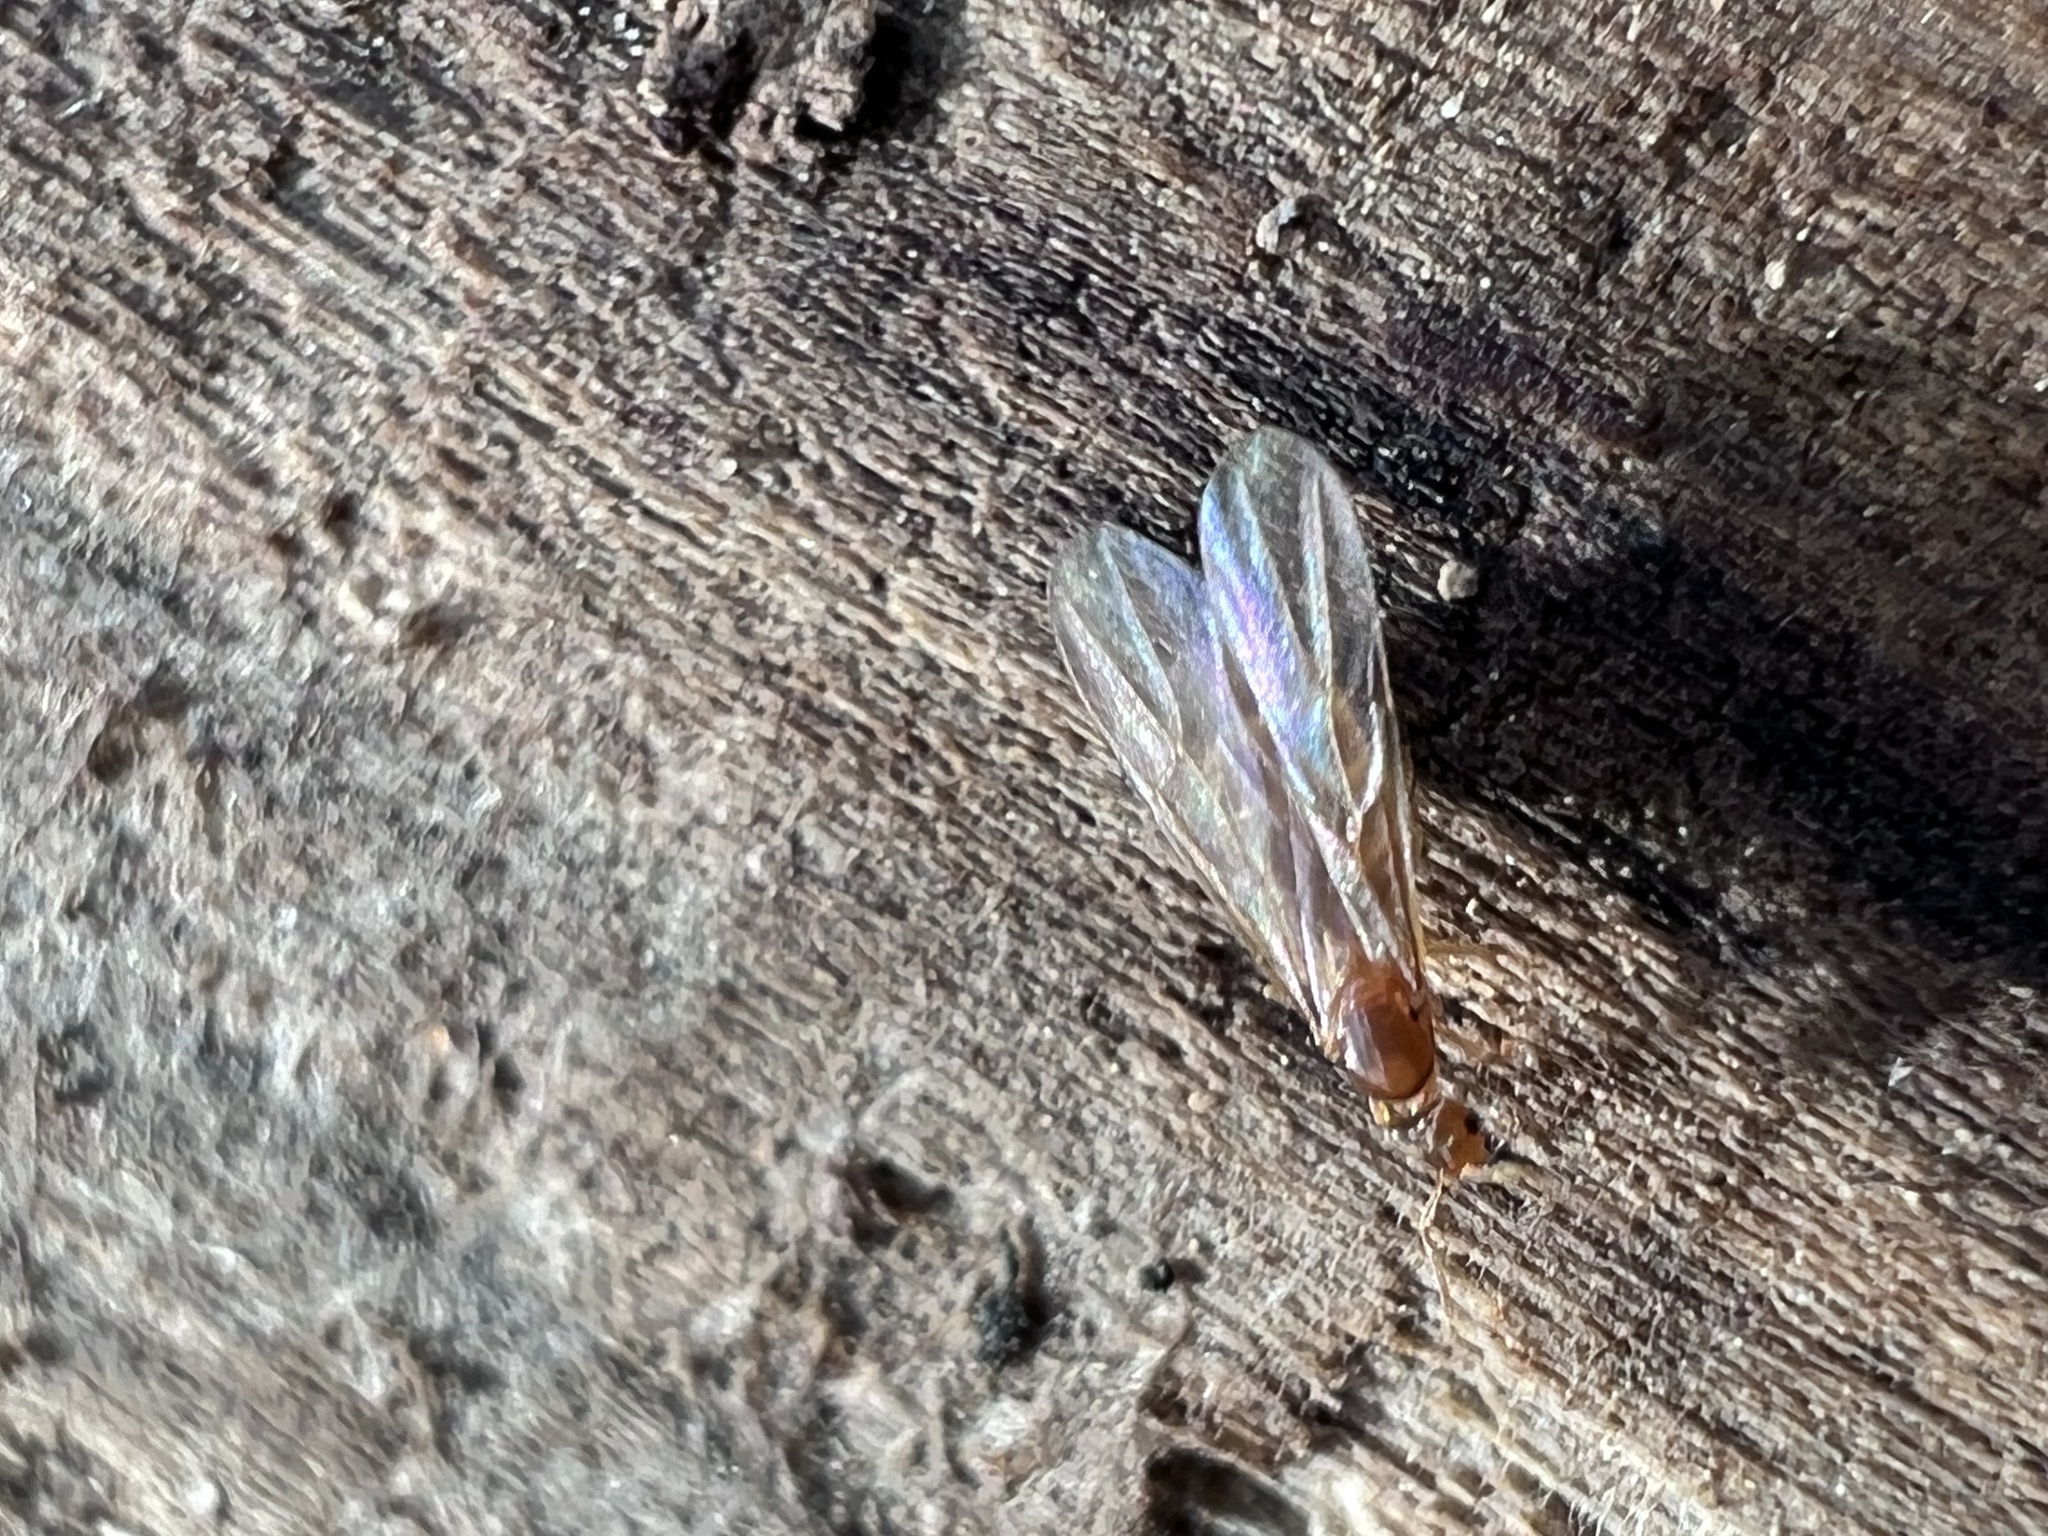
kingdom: Animalia
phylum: Arthropoda
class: Insecta
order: Hymenoptera
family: Formicidae
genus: Brachymyrmex
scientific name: Brachymyrmex depilis
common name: Hairless rover ant
